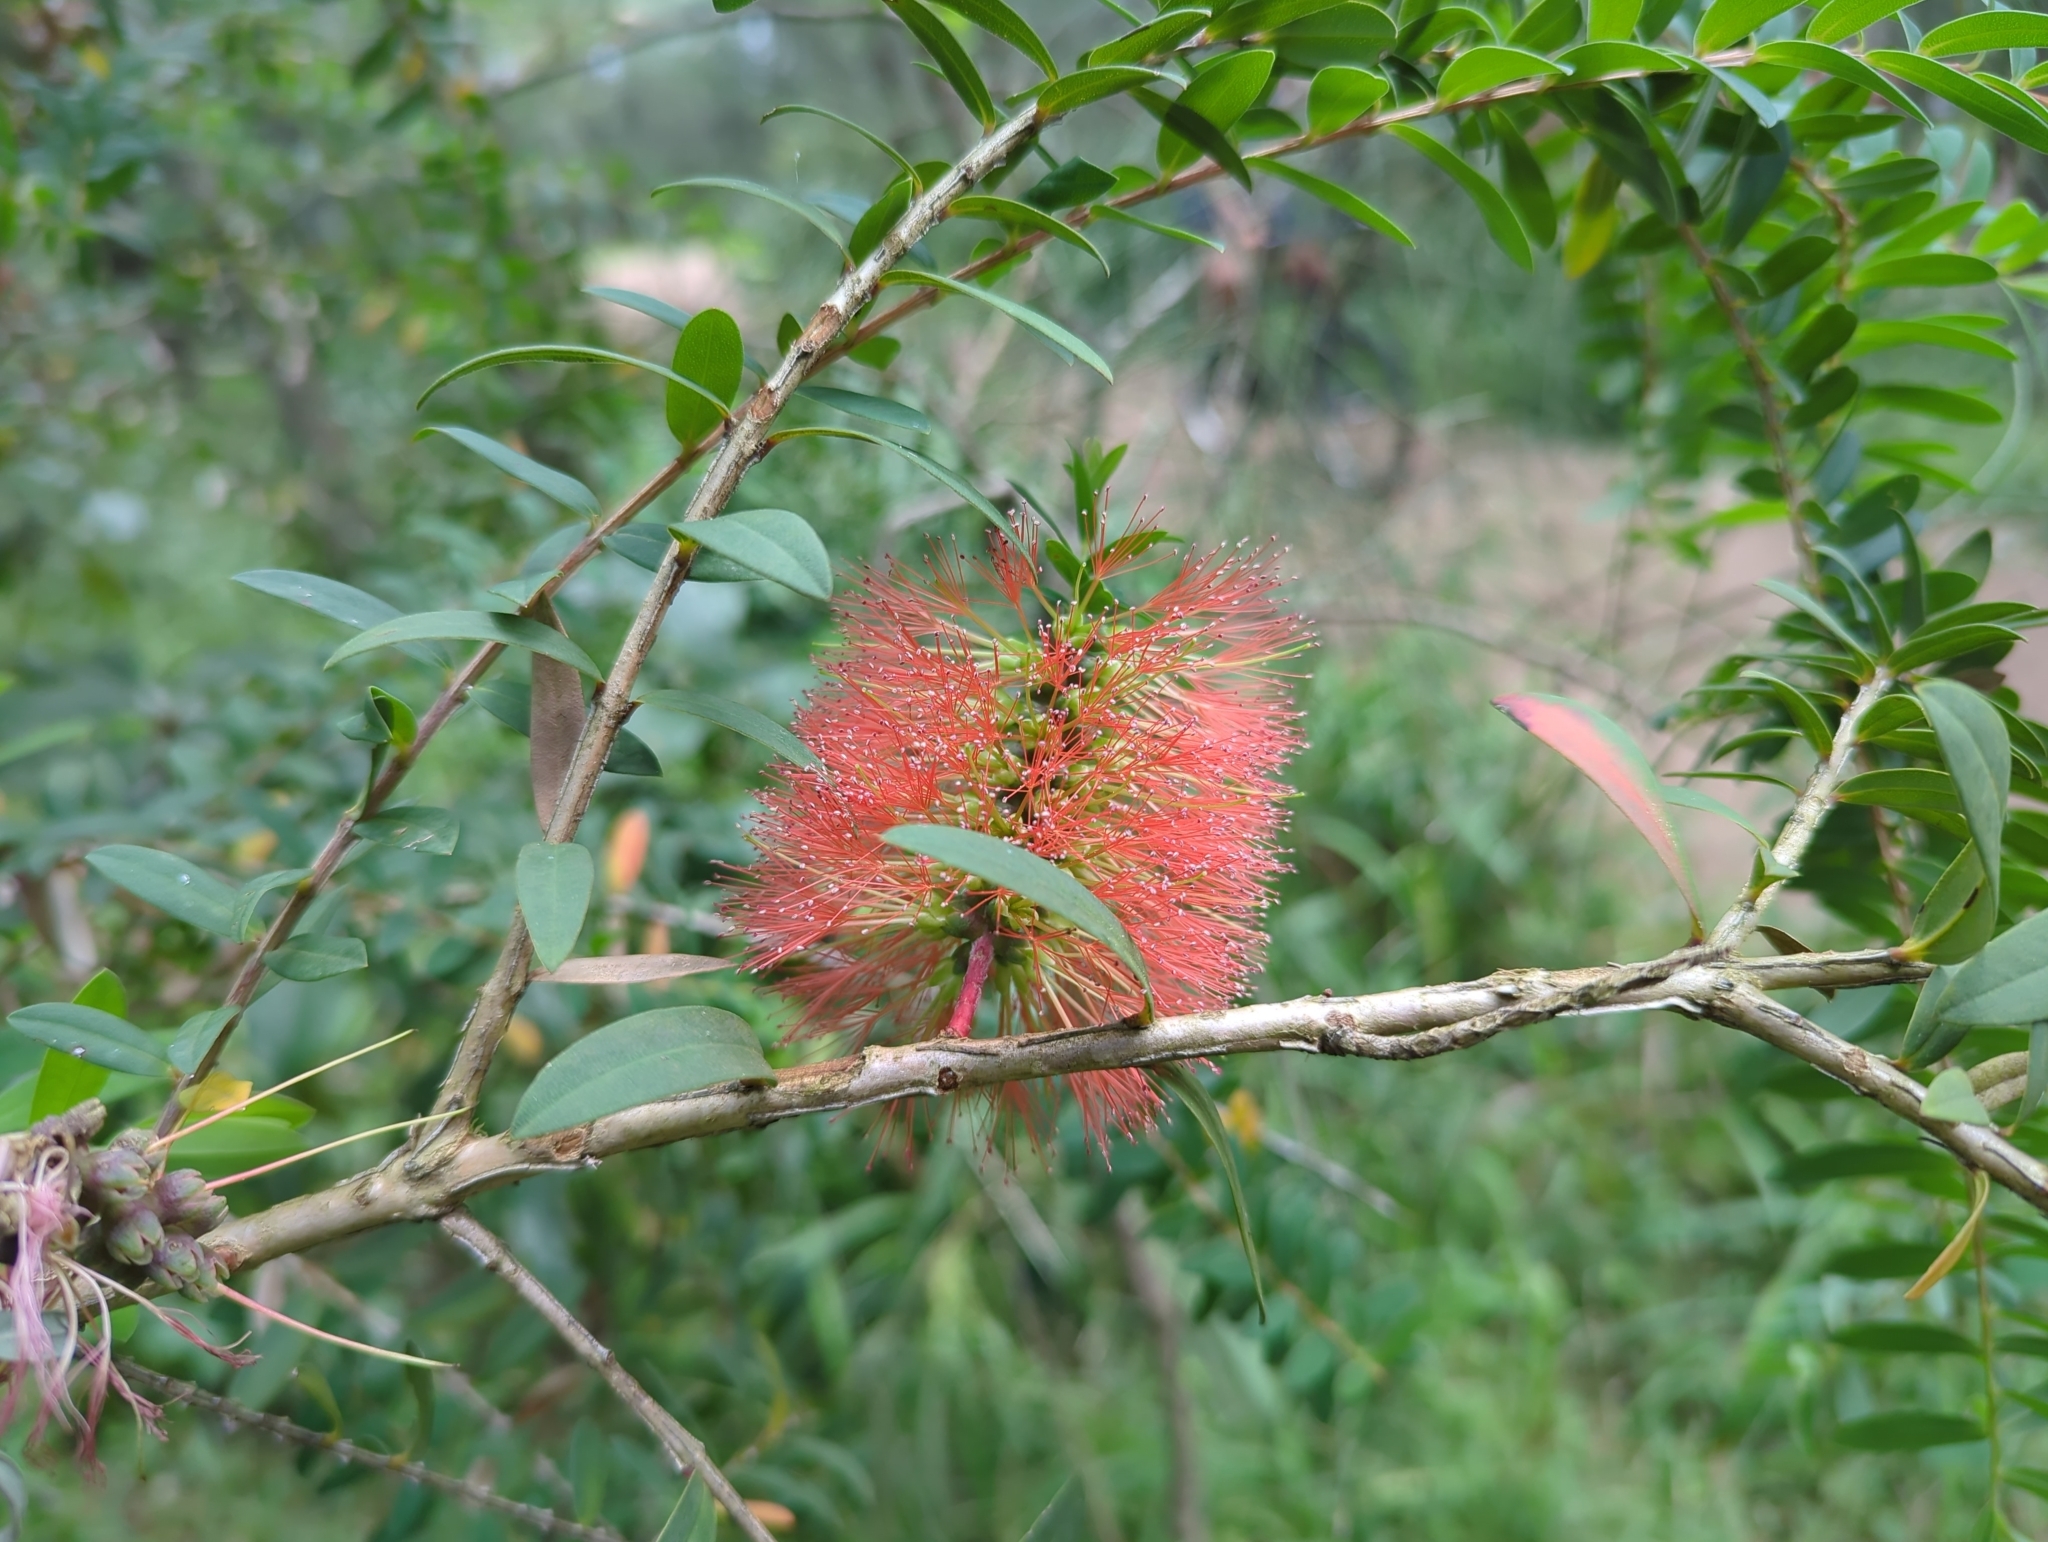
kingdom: Plantae
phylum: Tracheophyta
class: Magnoliopsida
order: Myrtales
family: Myrtaceae
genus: Melaleuca
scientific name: Melaleuca hypericifolia
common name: Red honey myrtle
